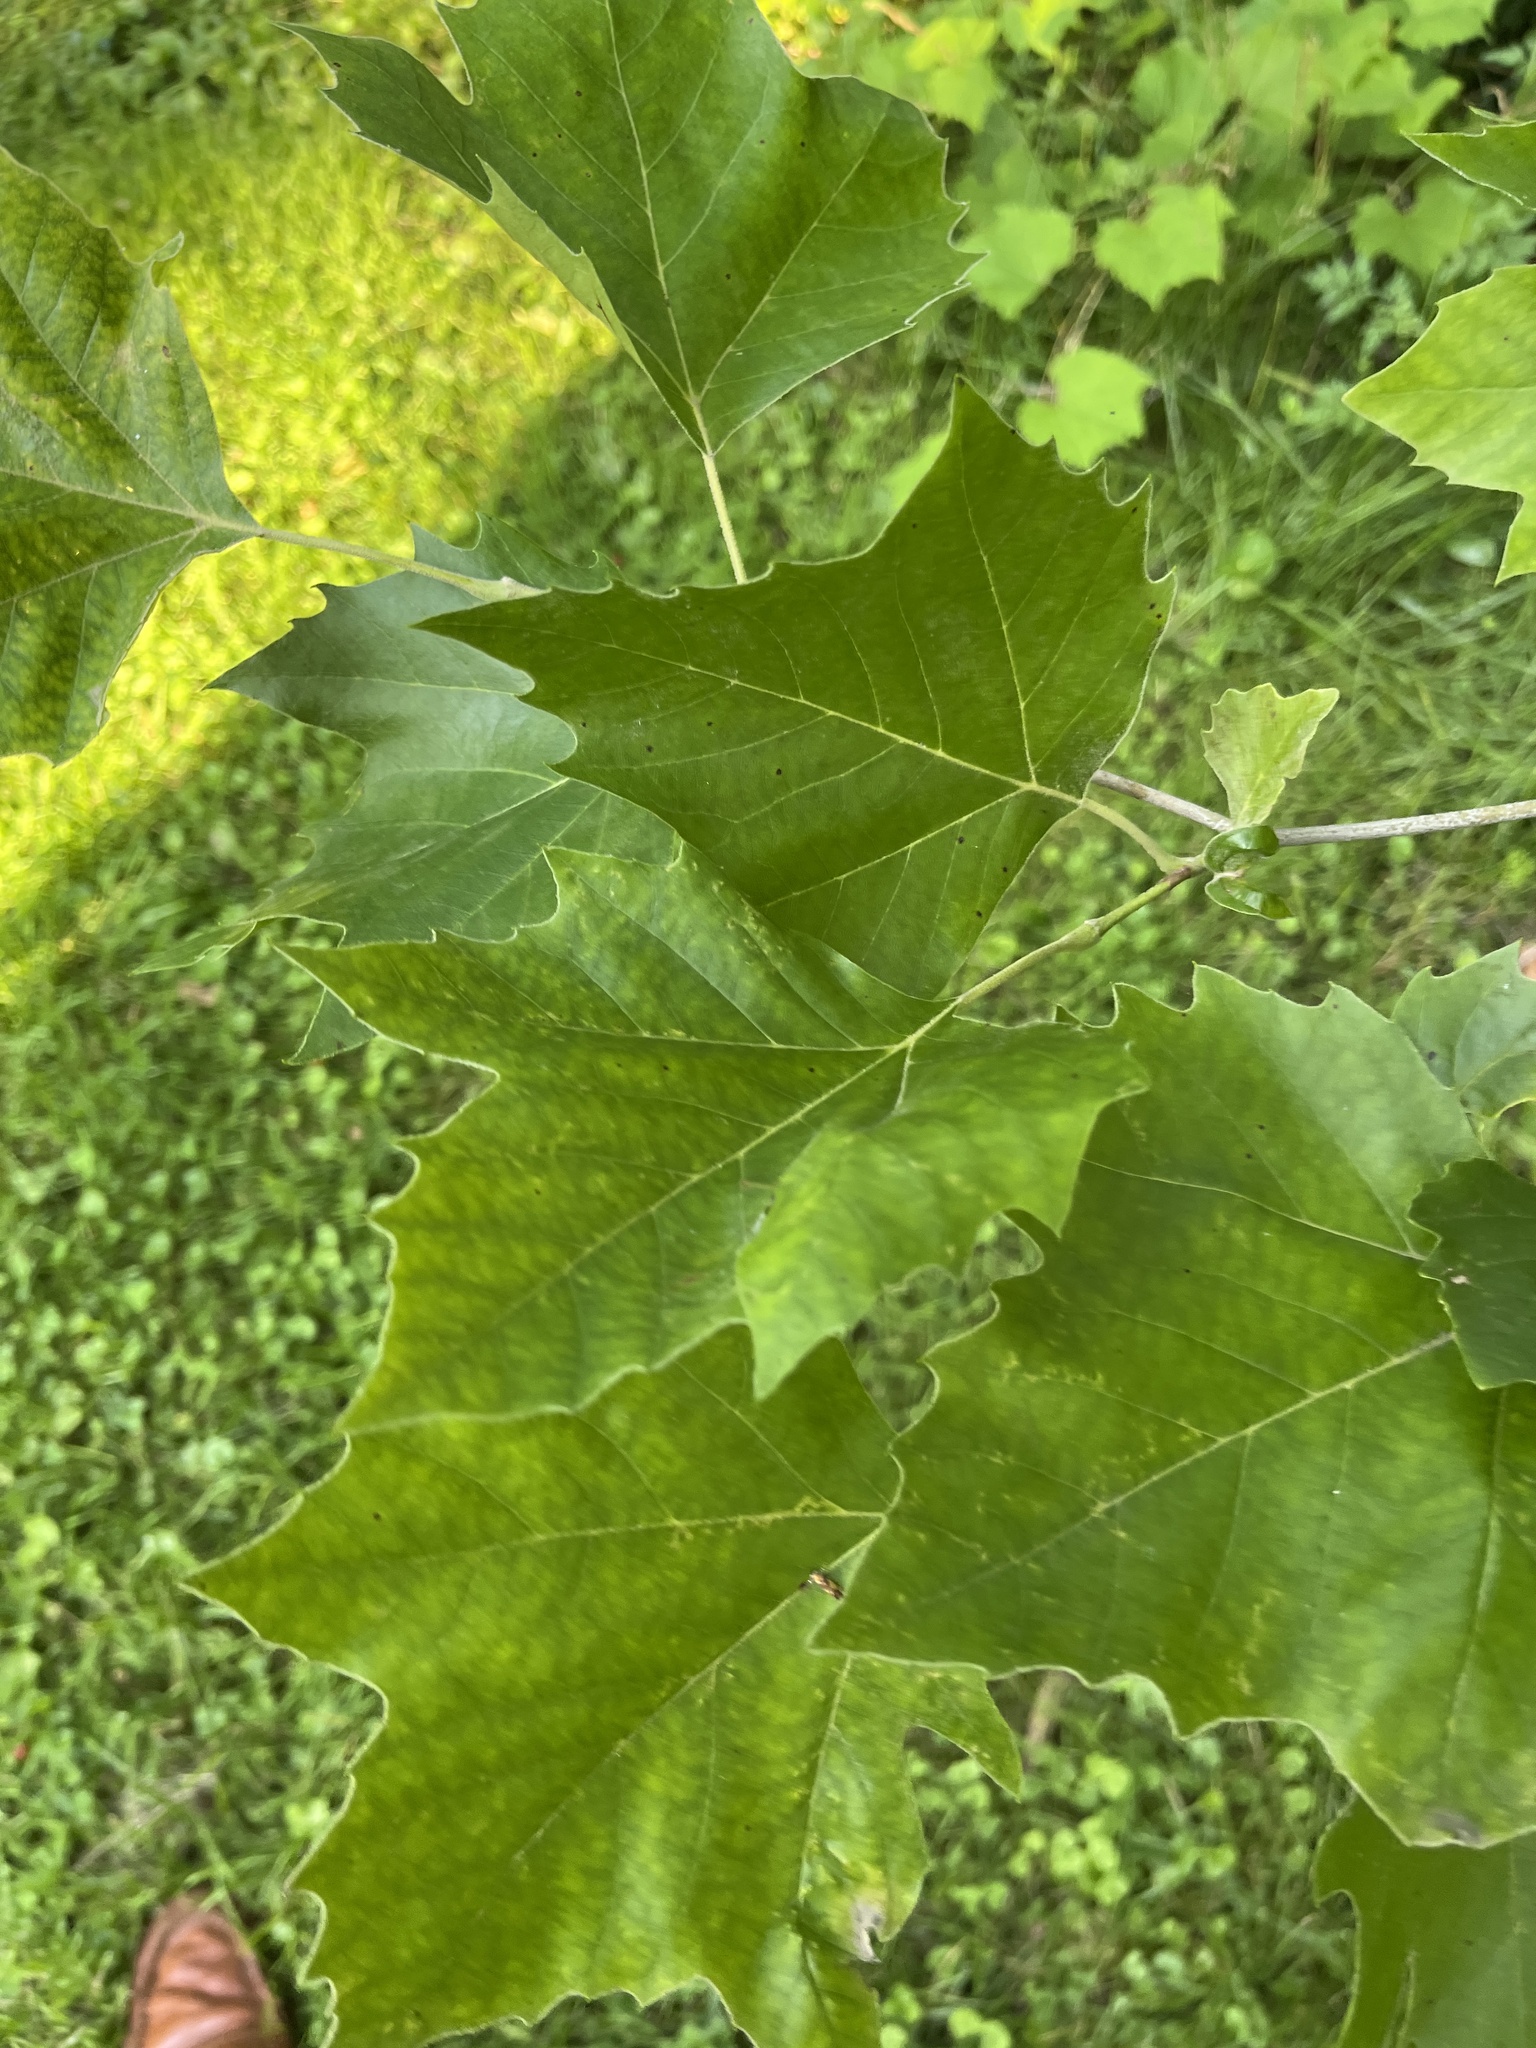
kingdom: Plantae
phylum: Tracheophyta
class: Magnoliopsida
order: Proteales
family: Platanaceae
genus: Platanus
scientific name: Platanus occidentalis
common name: American sycamore
